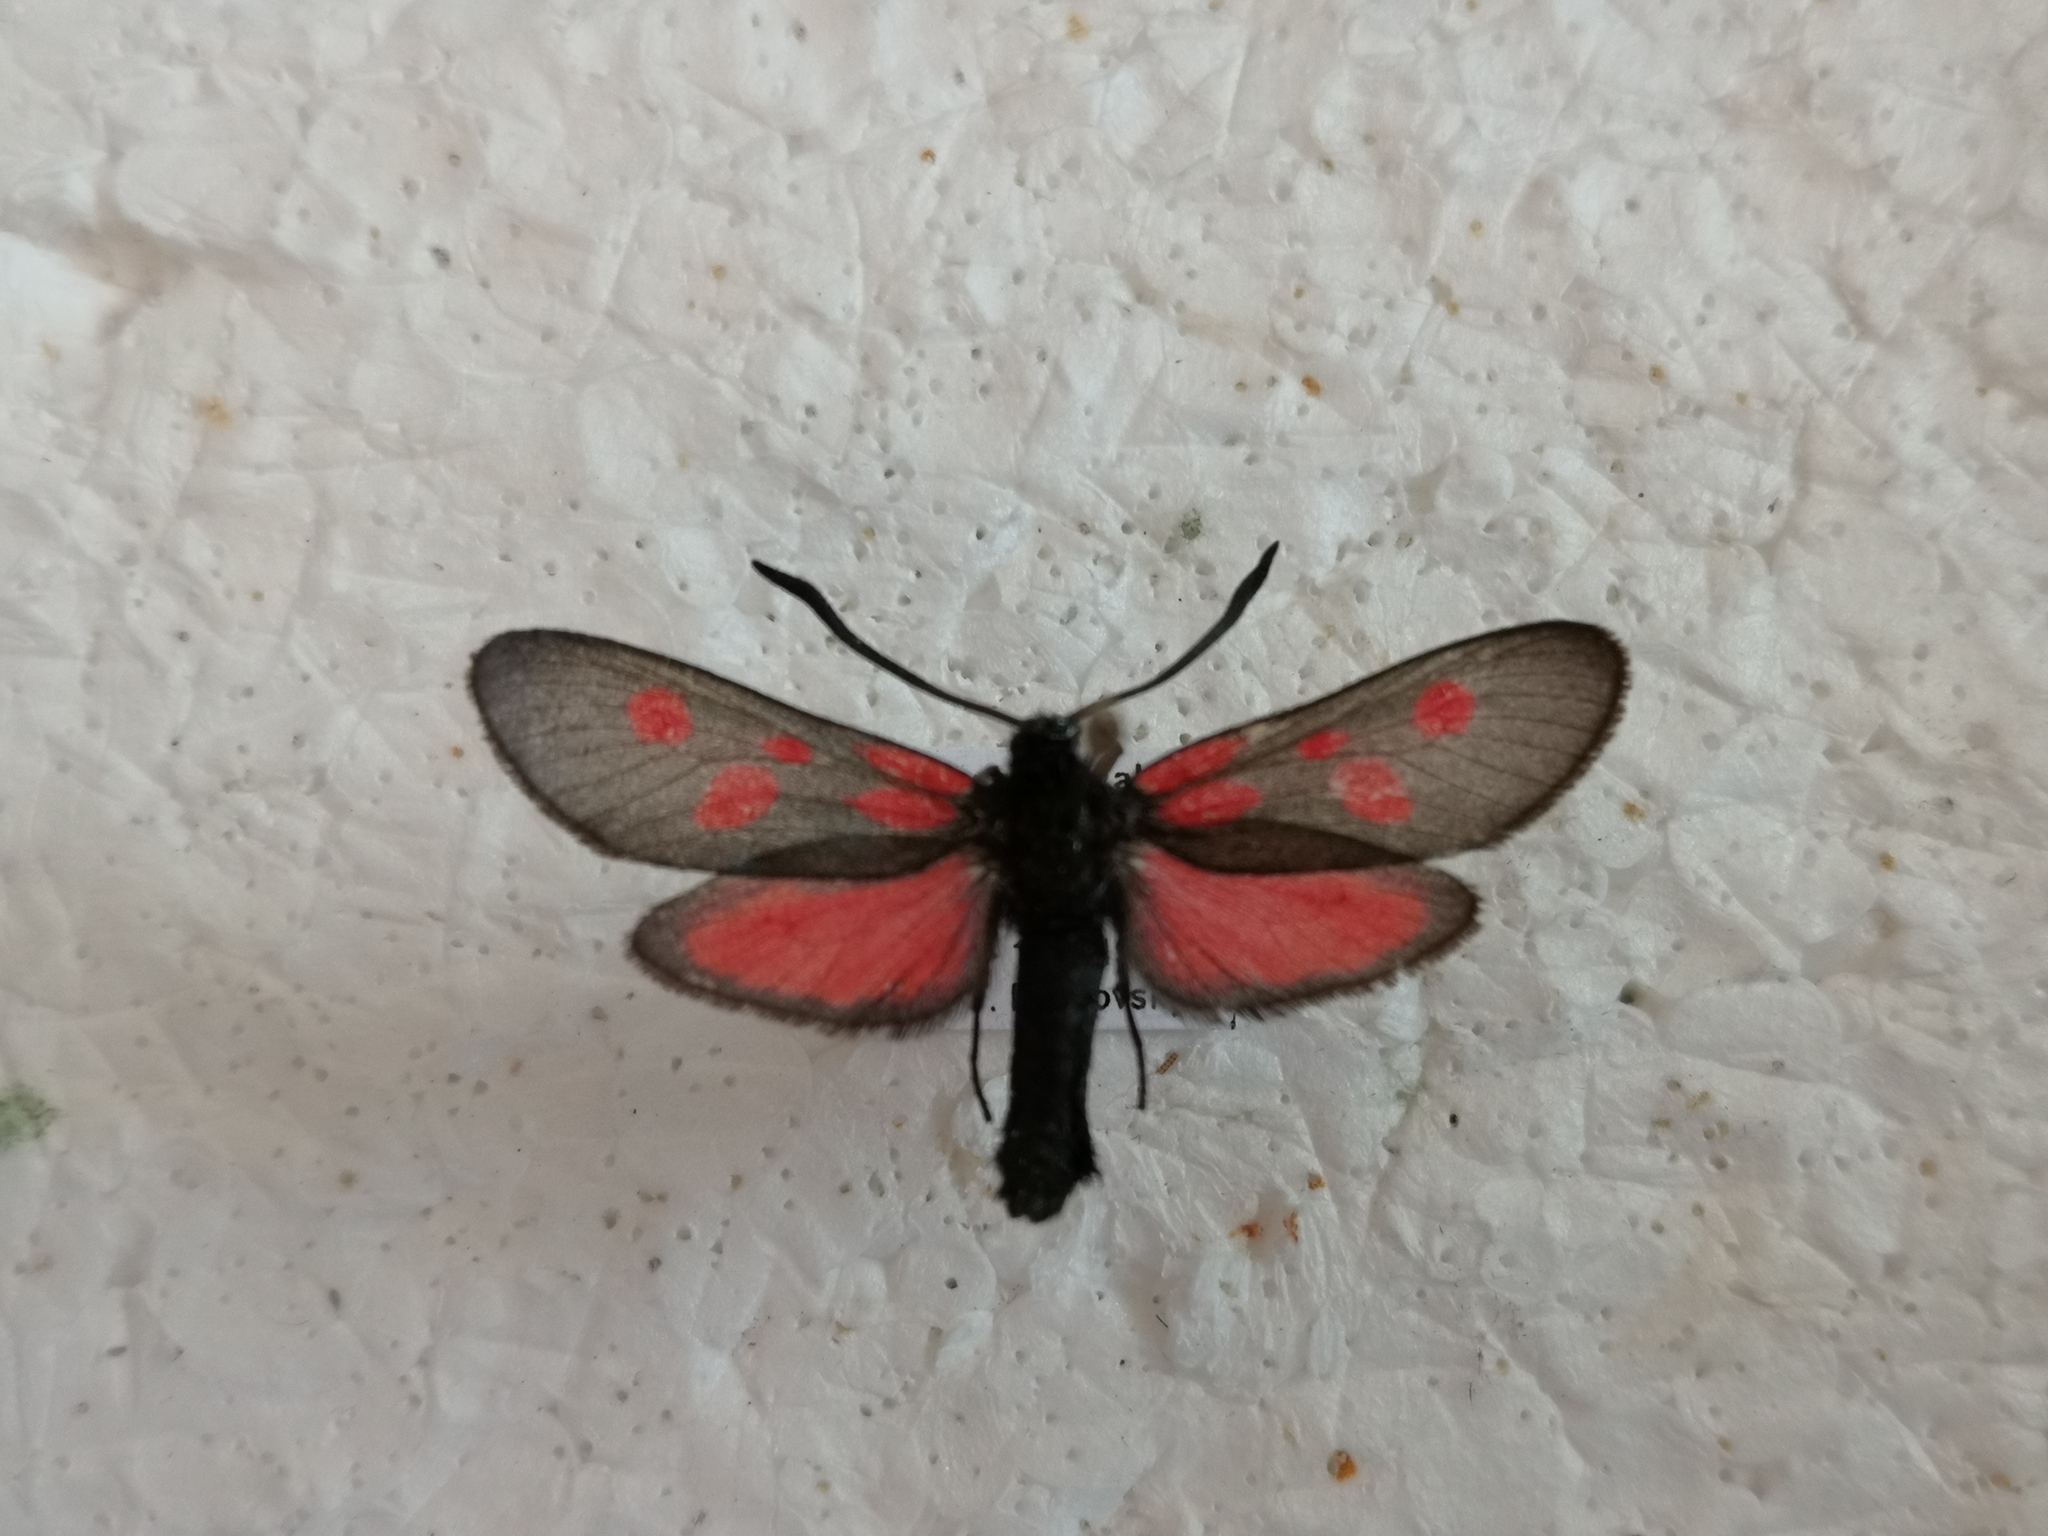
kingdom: Animalia
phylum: Arthropoda
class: Insecta
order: Lepidoptera
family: Zygaenidae
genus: Zygaena
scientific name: Zygaena viciae
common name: New forest burnet
